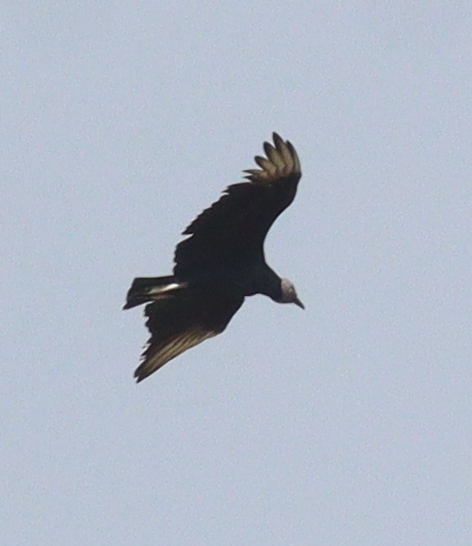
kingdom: Animalia
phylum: Chordata
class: Aves
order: Accipitriformes
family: Cathartidae
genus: Coragyps
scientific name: Coragyps atratus
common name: Black vulture
